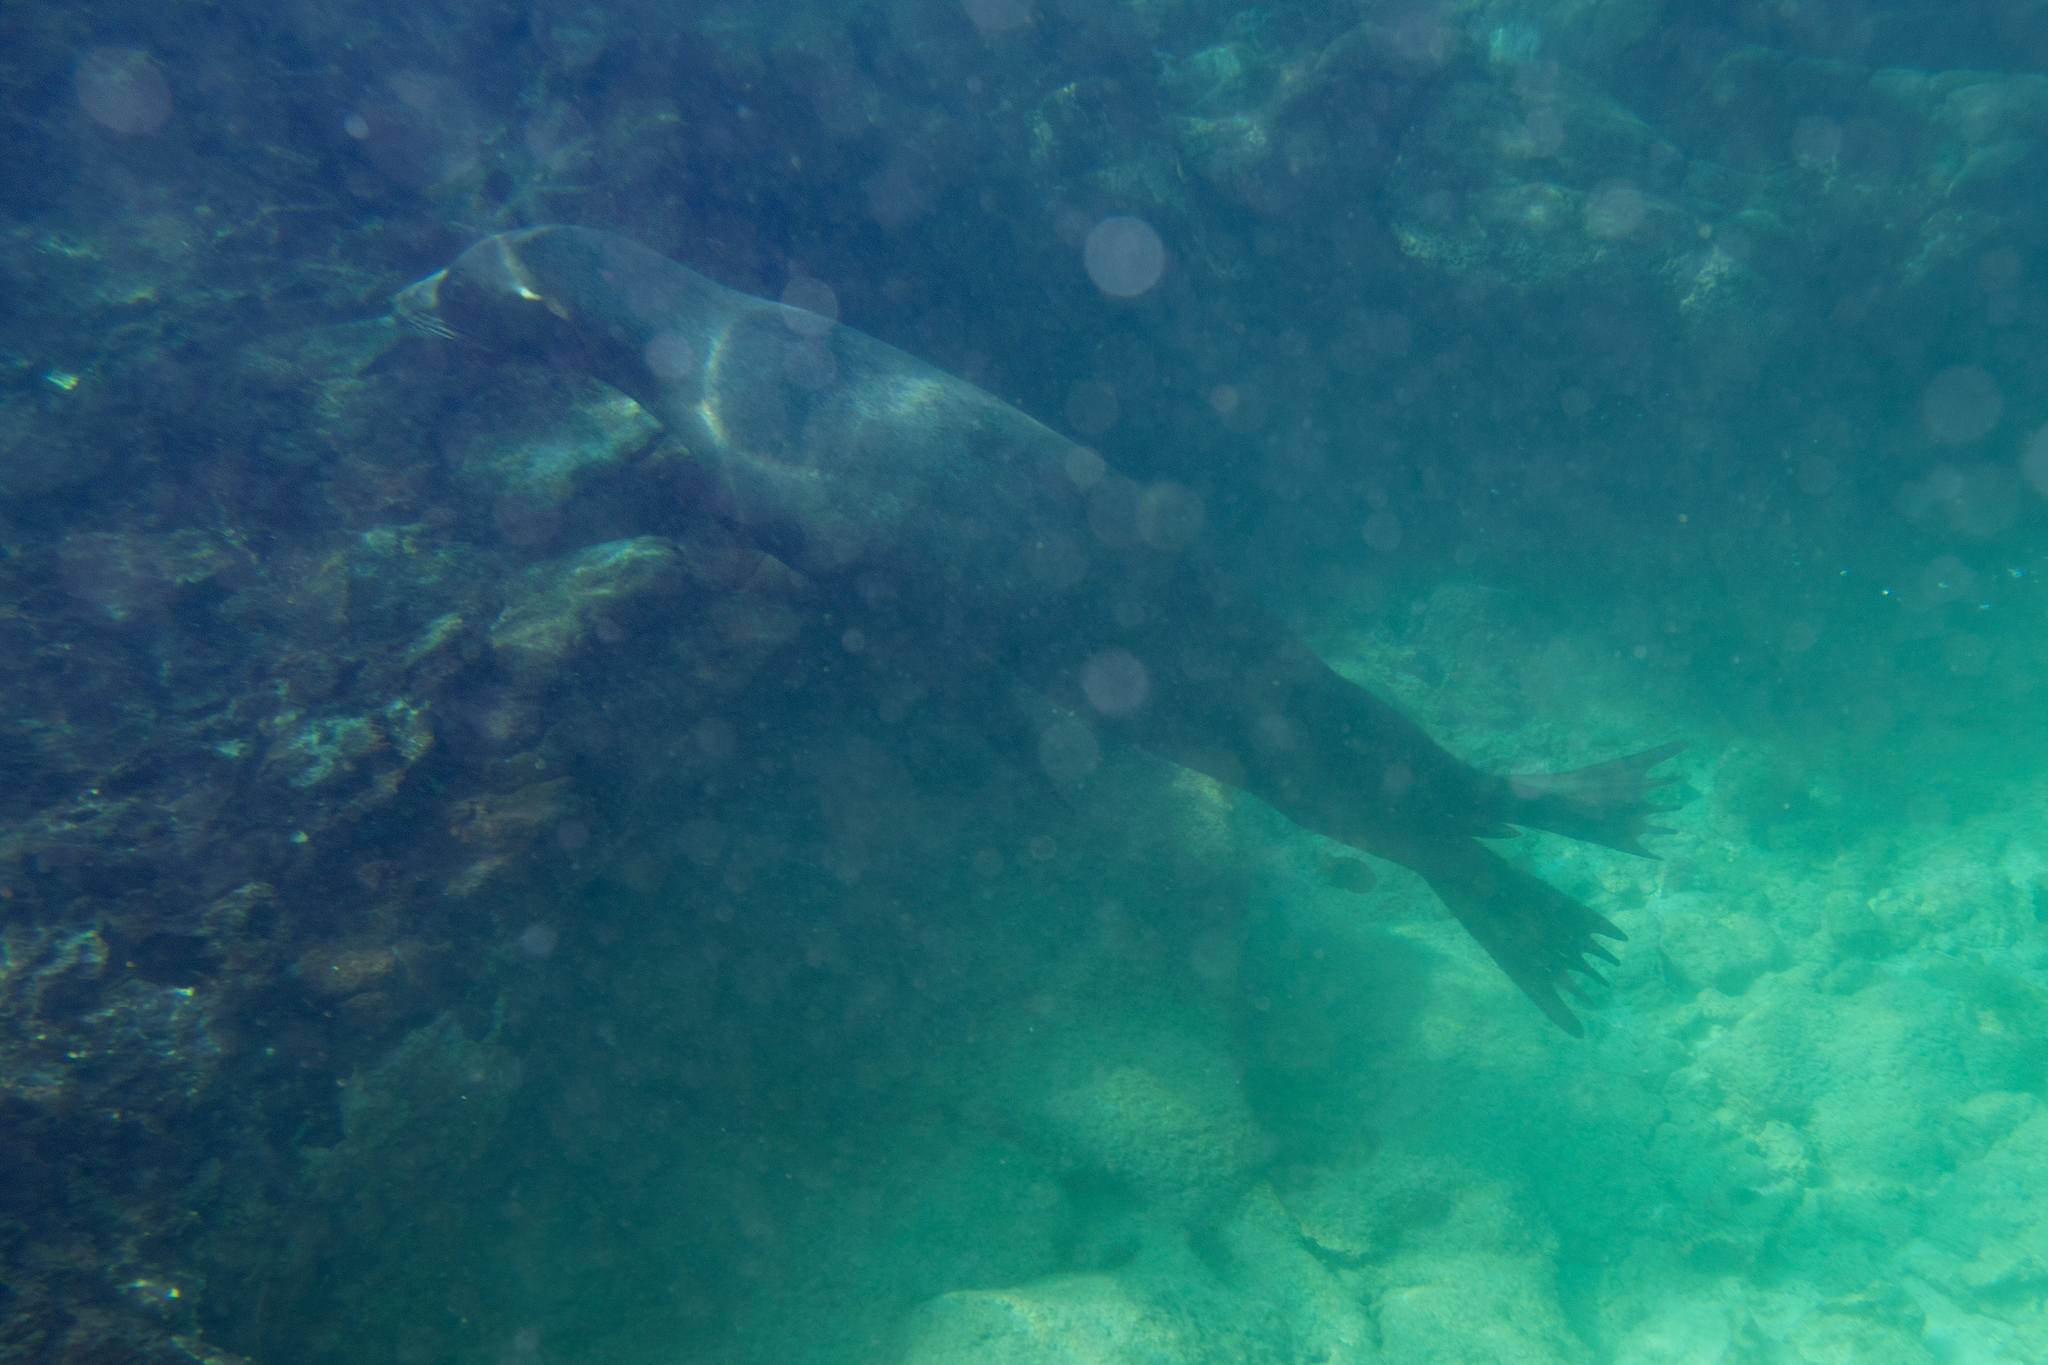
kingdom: Animalia
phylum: Chordata
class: Mammalia
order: Carnivora
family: Otariidae
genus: Zalophus
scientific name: Zalophus wollebaeki
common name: Galapagos sea lion
